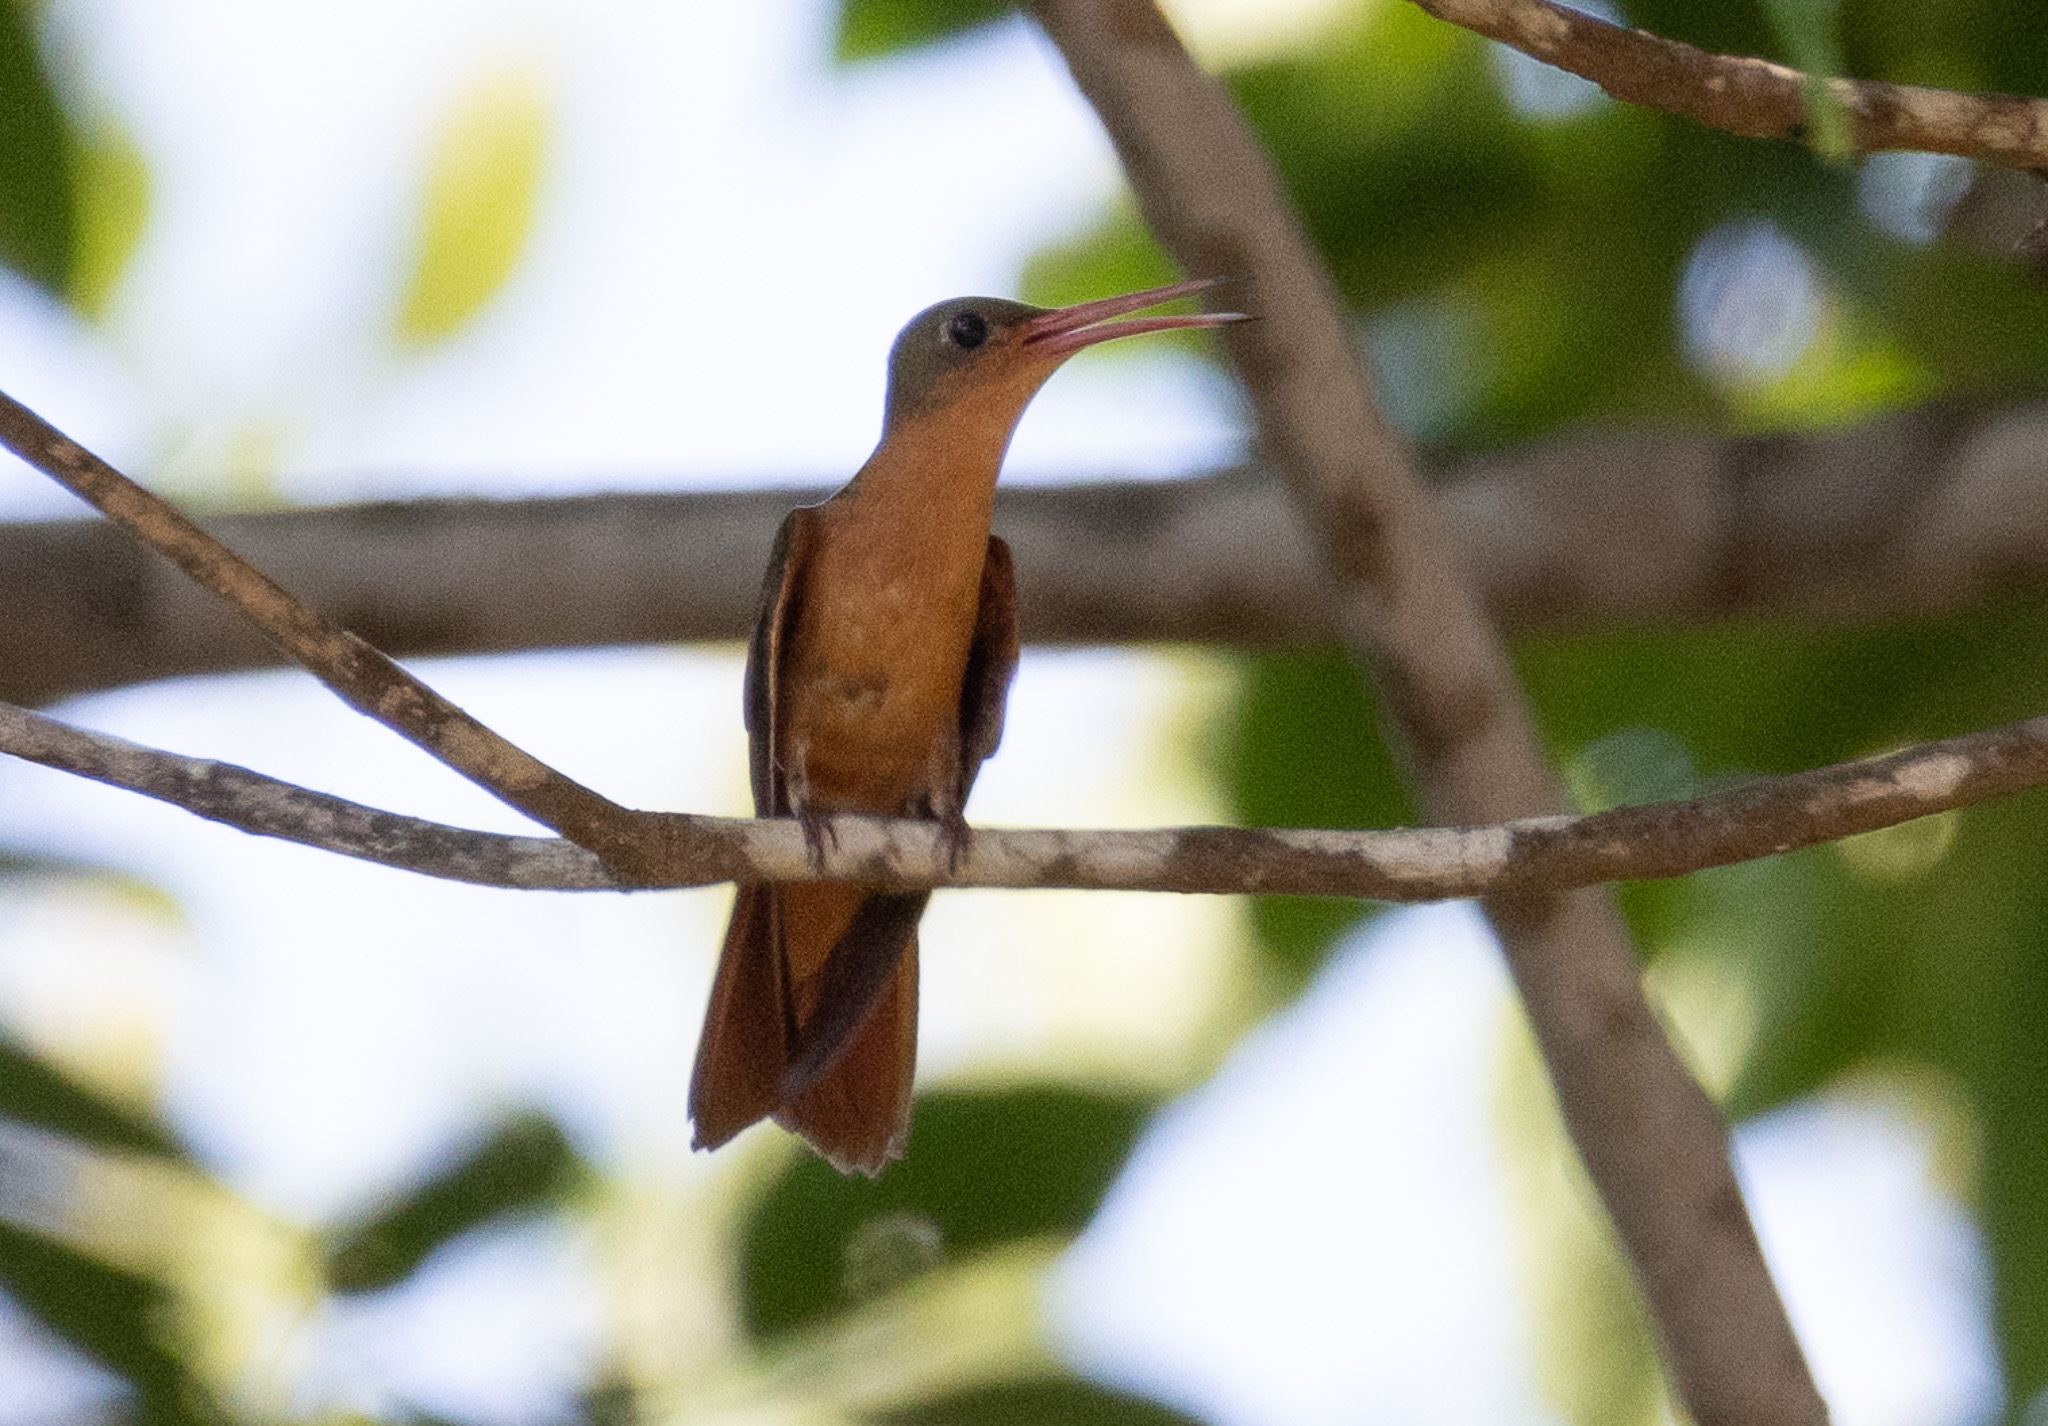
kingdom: Animalia
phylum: Chordata
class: Aves
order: Apodiformes
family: Trochilidae
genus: Amazilia
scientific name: Amazilia rutila
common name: Cinnamon hummingbird
